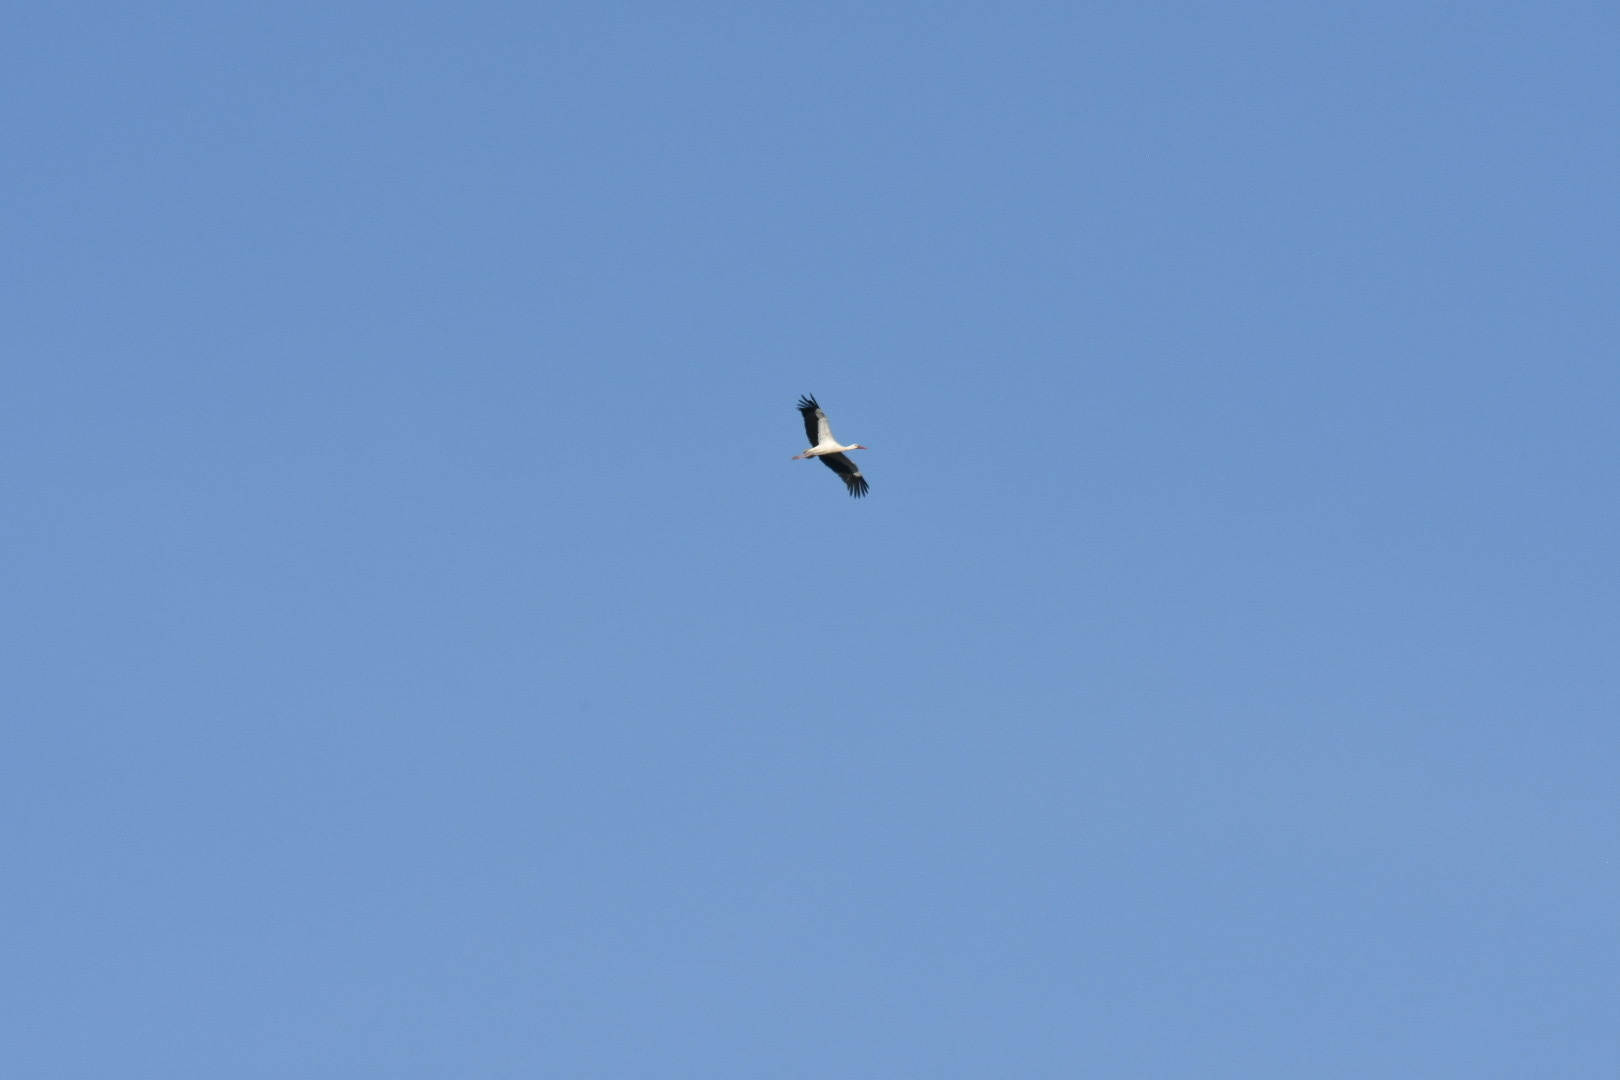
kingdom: Animalia
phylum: Chordata
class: Aves
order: Ciconiiformes
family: Ciconiidae
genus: Ciconia
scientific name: Ciconia ciconia
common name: White stork
